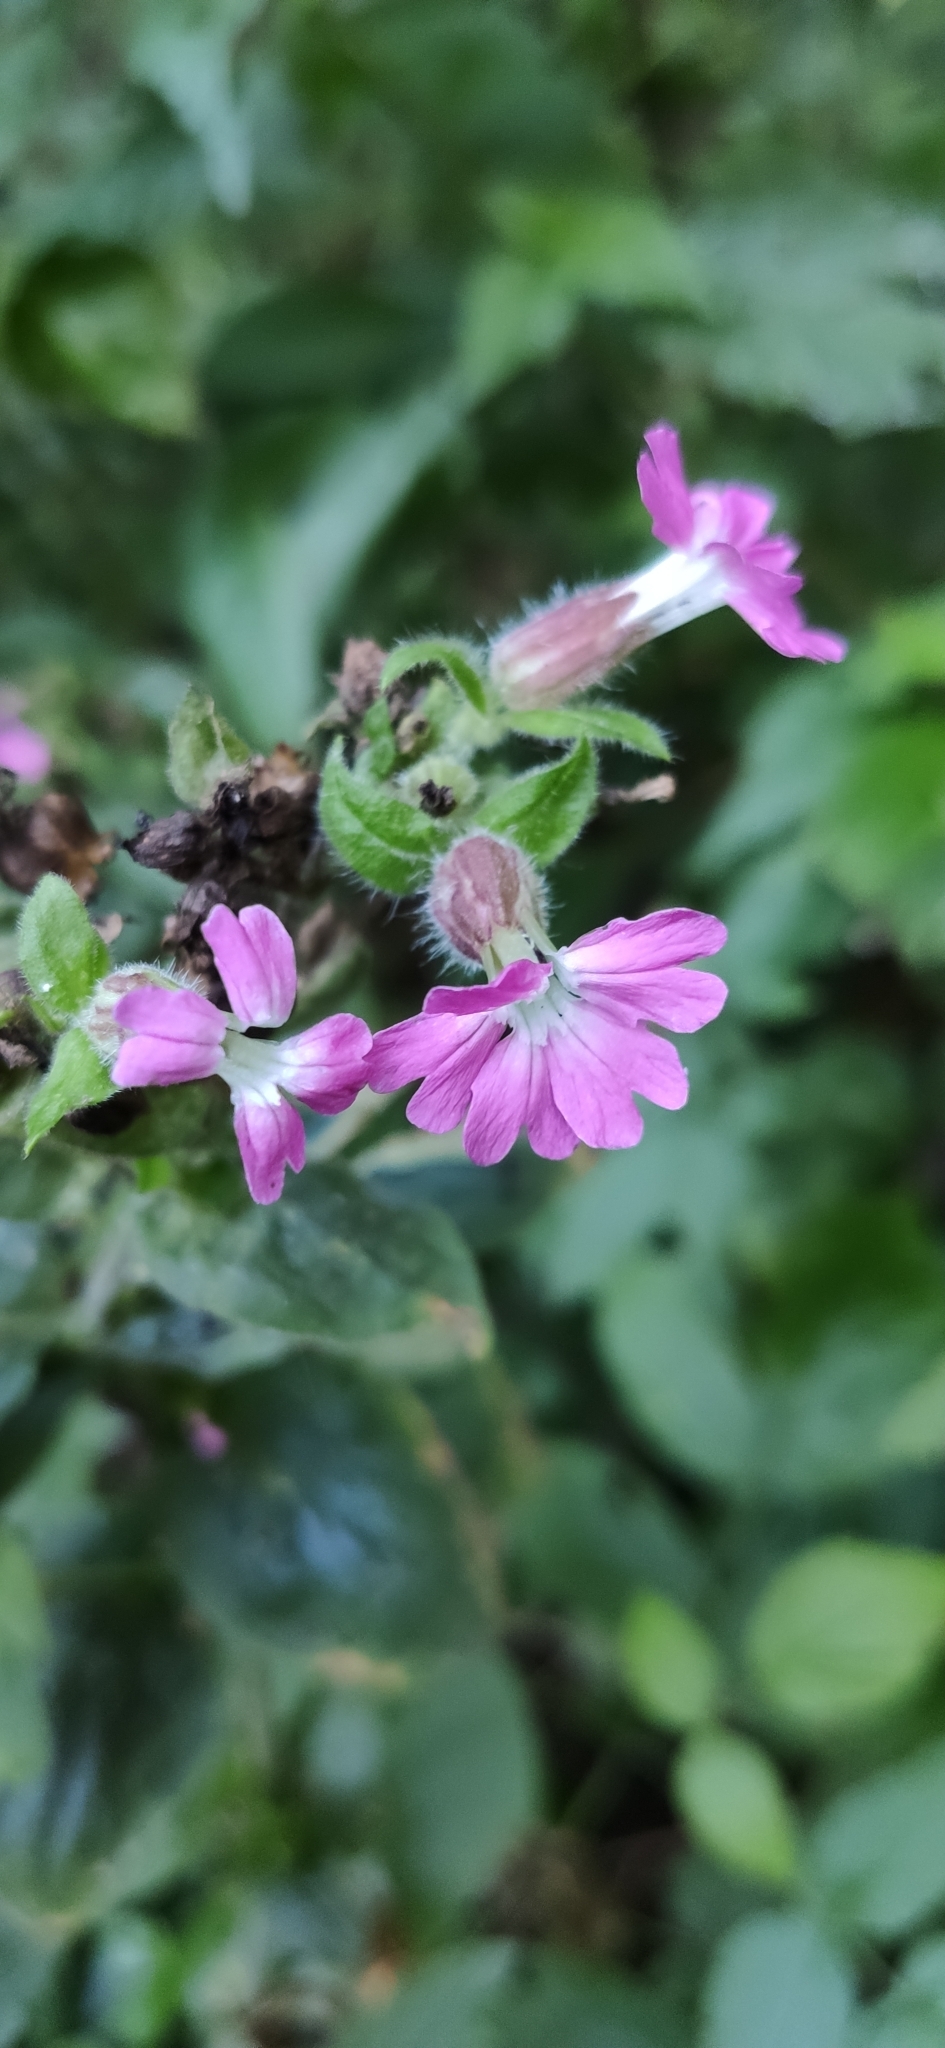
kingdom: Plantae
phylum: Tracheophyta
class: Magnoliopsida
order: Caryophyllales
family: Caryophyllaceae
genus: Silene
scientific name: Silene dioica
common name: Red campion
